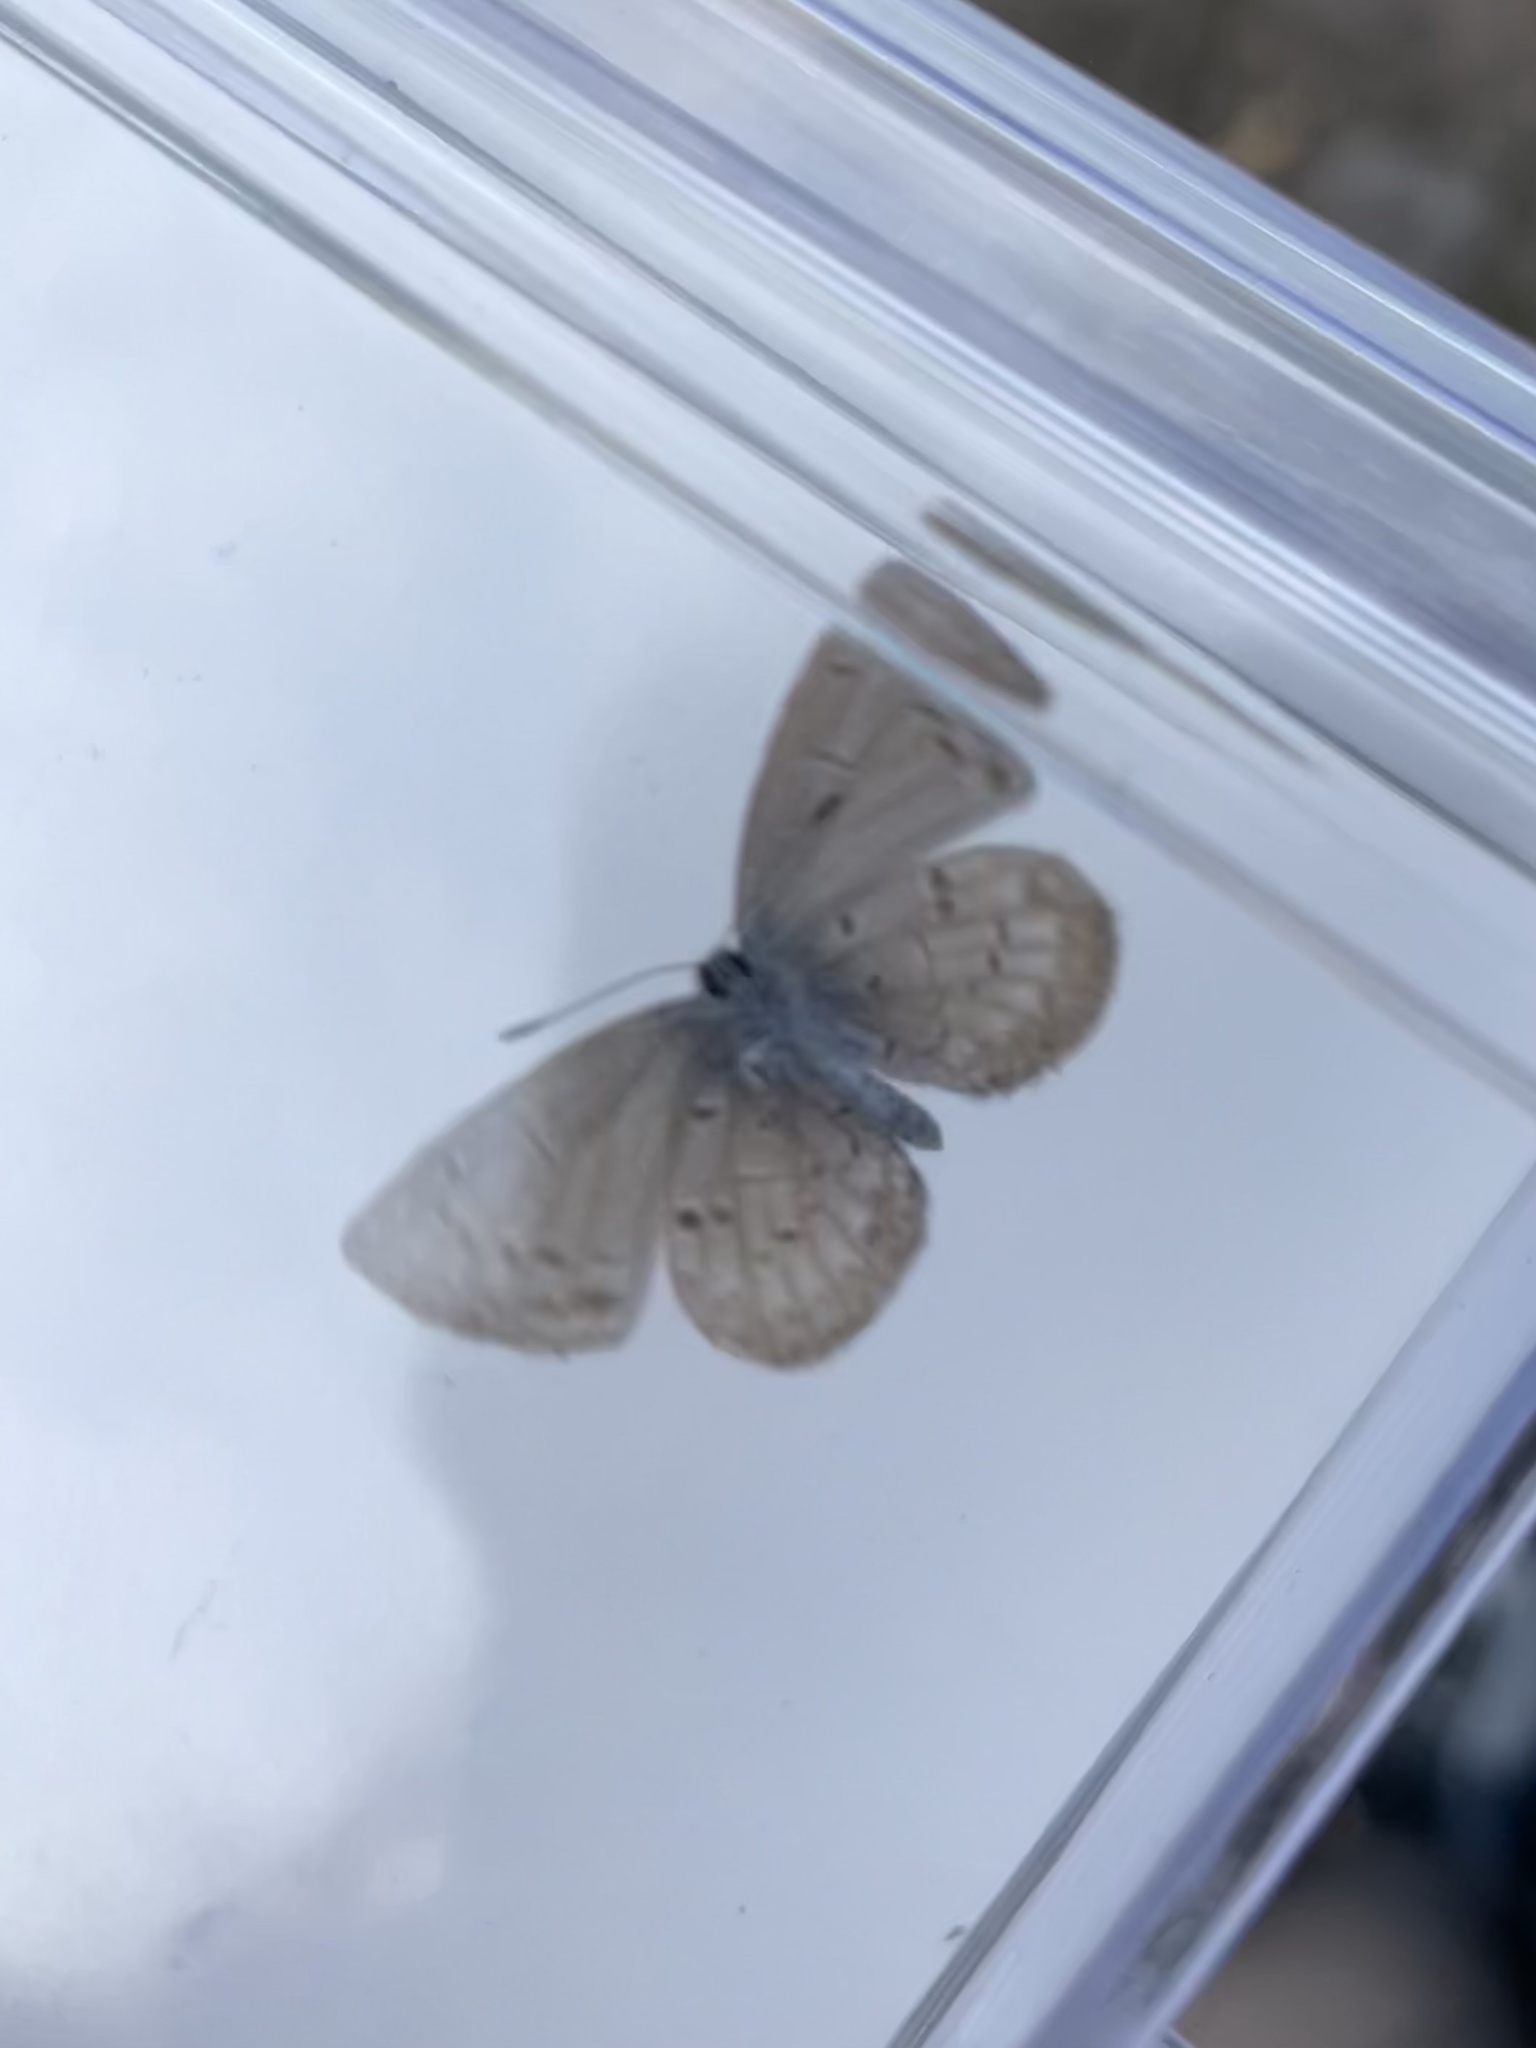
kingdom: Animalia
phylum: Arthropoda
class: Insecta
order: Lepidoptera
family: Lycaenidae
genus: Celastrina
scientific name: Celastrina lucia
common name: Lucia azure
